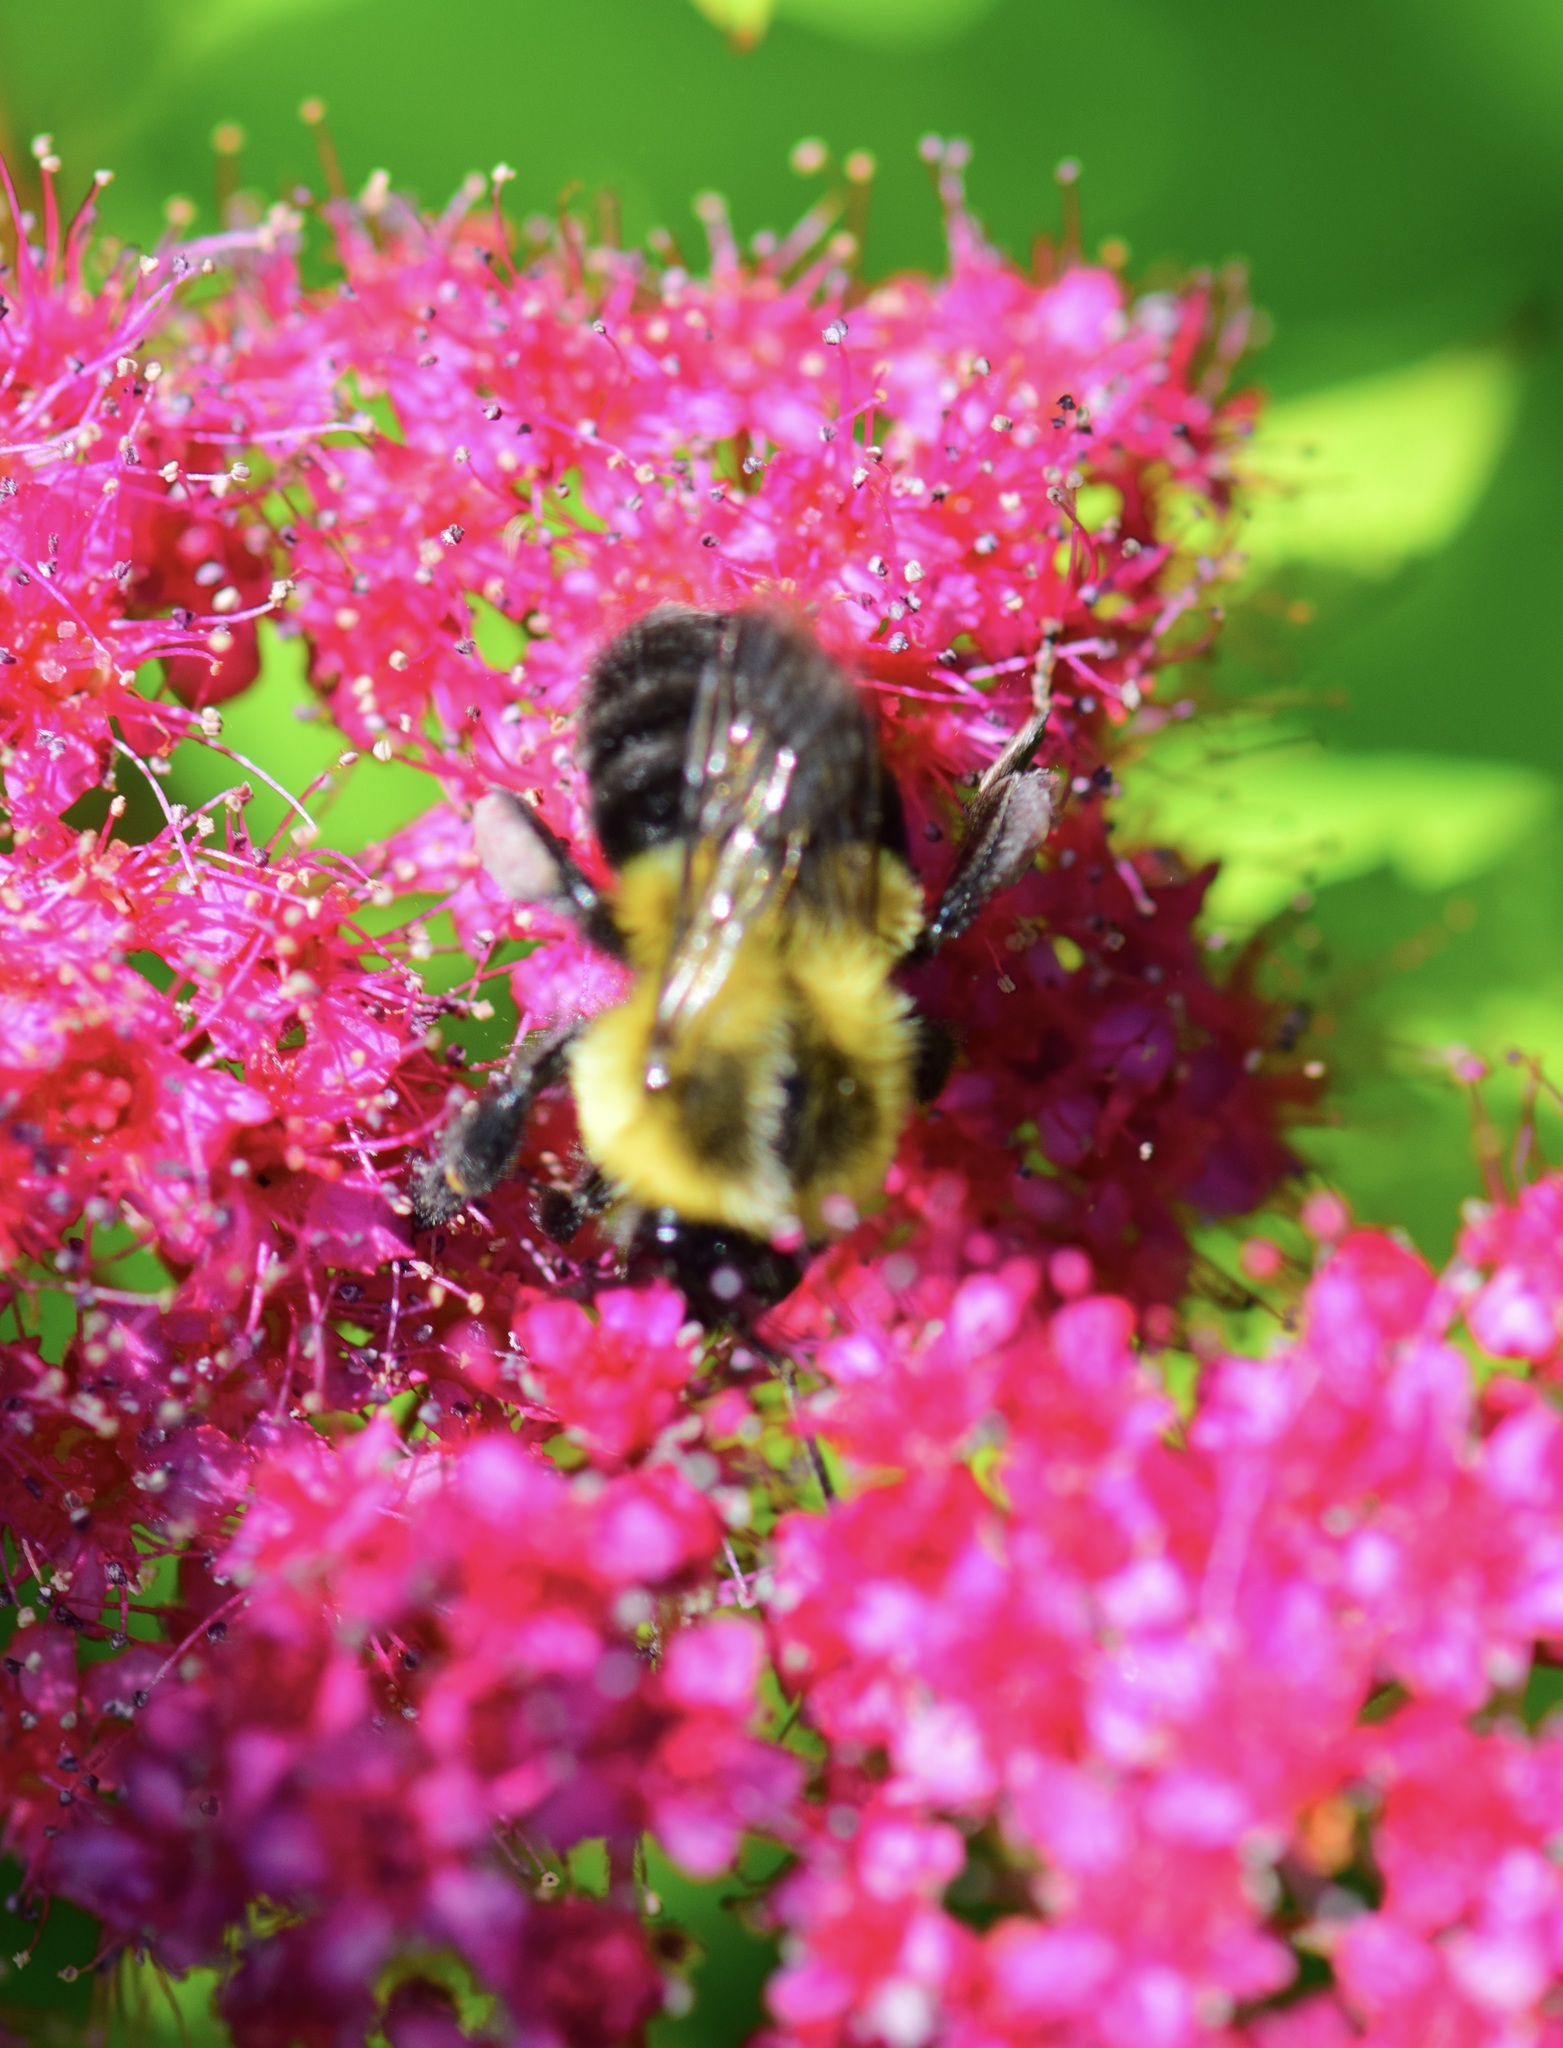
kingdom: Animalia
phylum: Arthropoda
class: Insecta
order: Hymenoptera
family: Apidae
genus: Bombus
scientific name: Bombus impatiens
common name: Common eastern bumble bee
